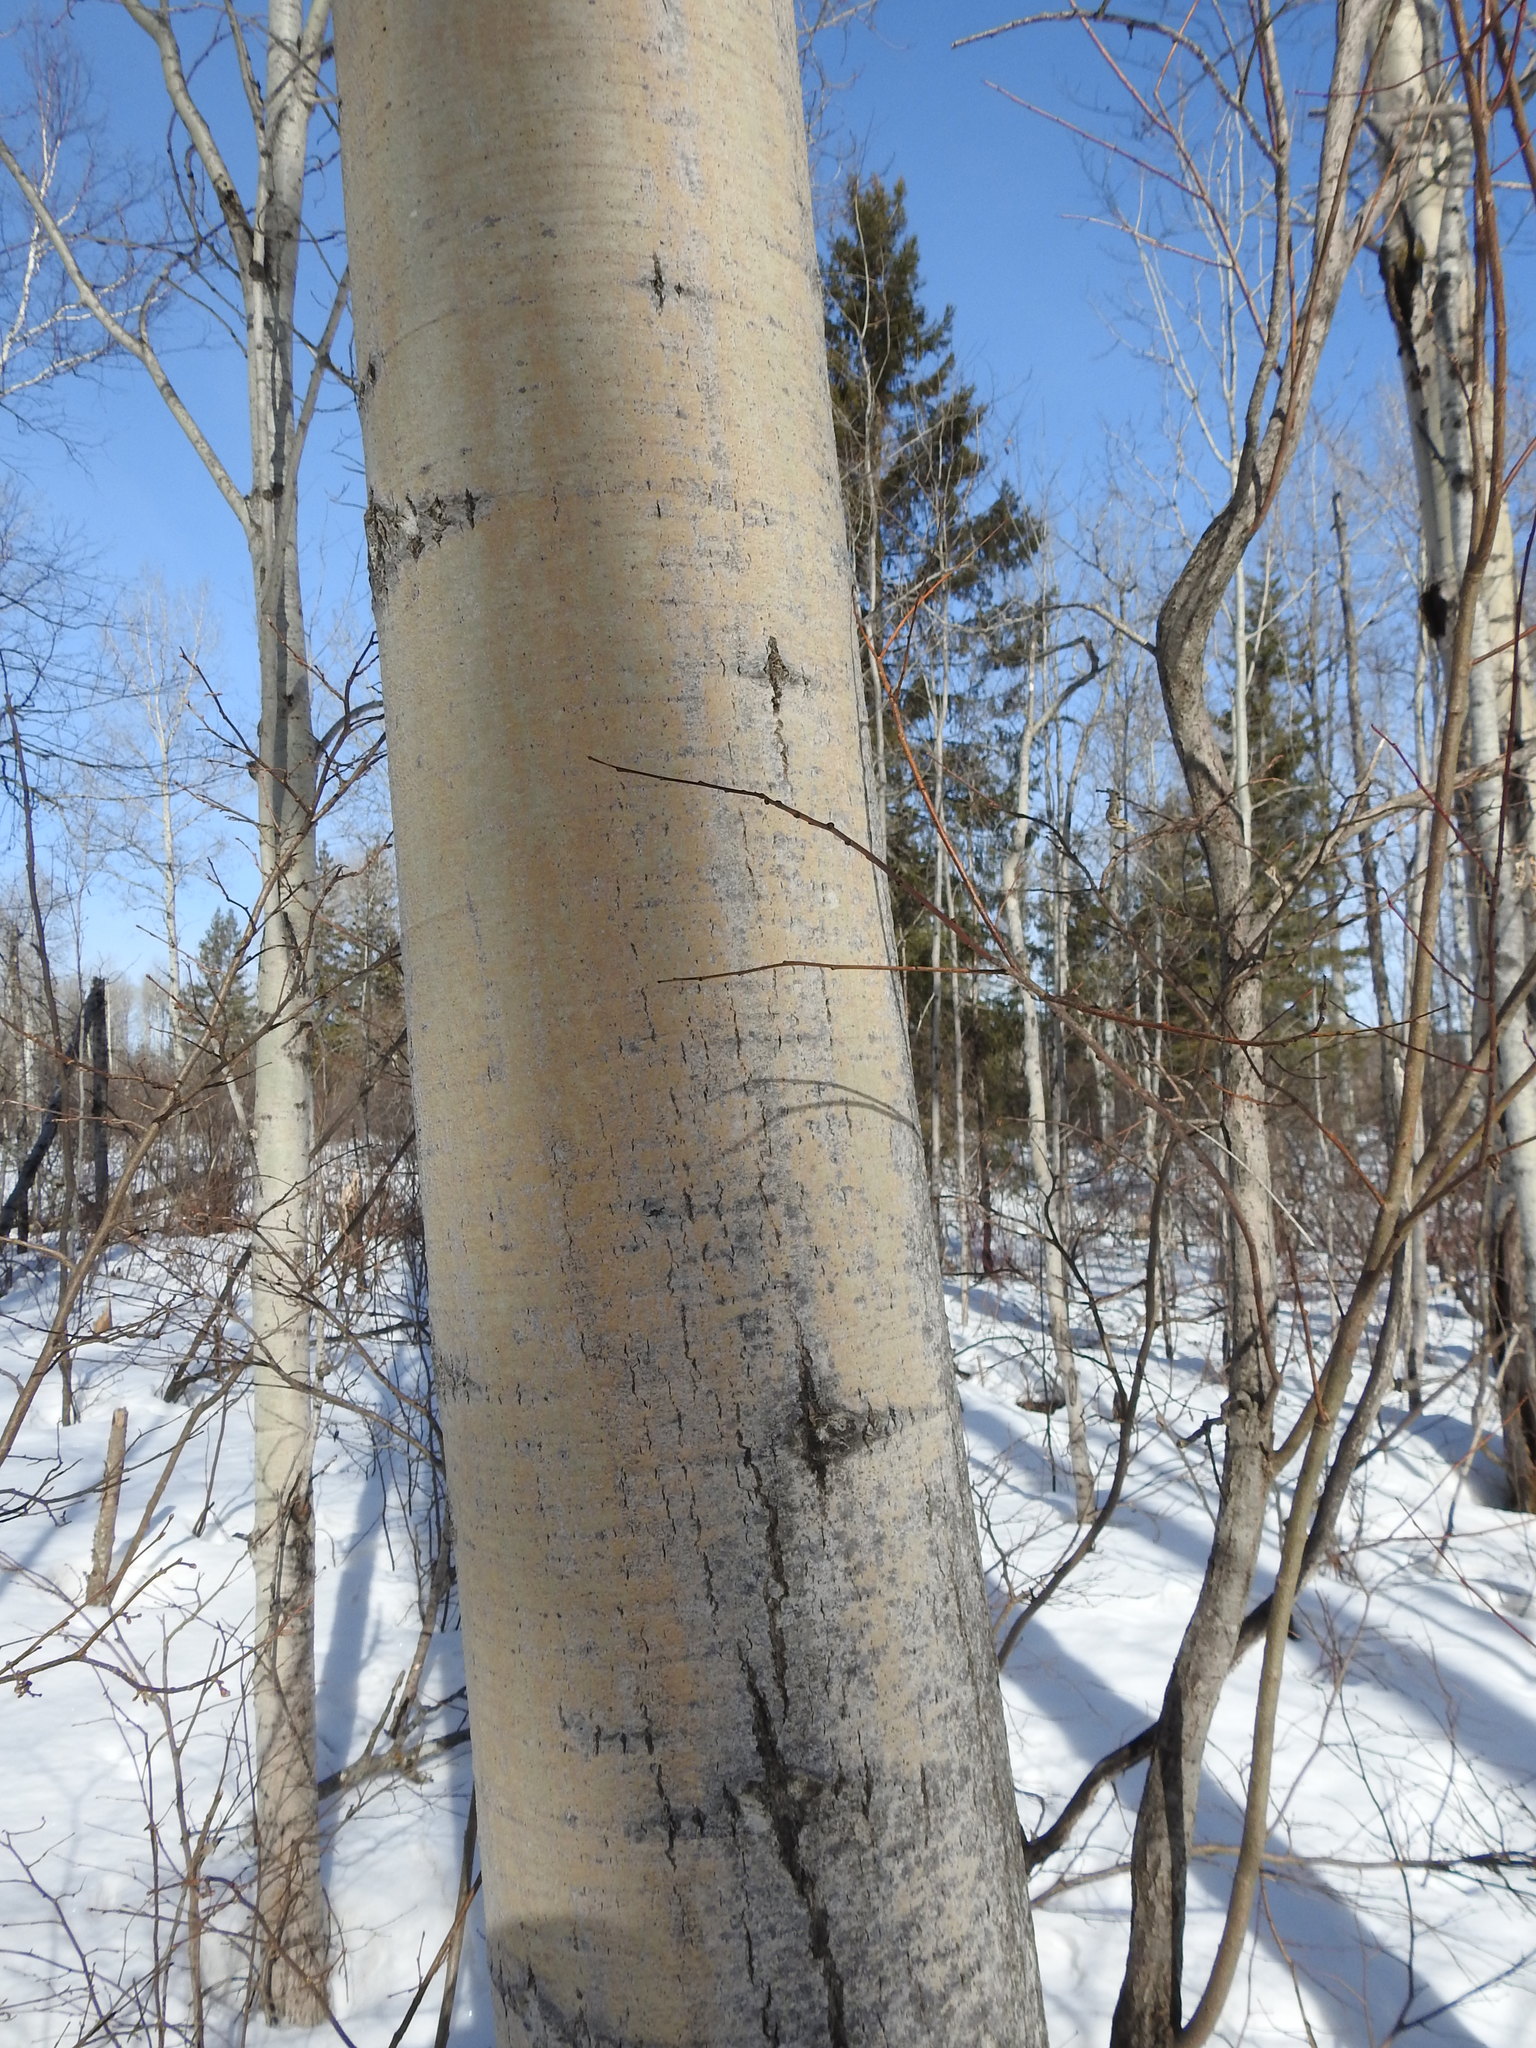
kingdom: Plantae
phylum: Tracheophyta
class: Magnoliopsida
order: Malpighiales
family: Salicaceae
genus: Populus
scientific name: Populus tremuloides
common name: Quaking aspen
